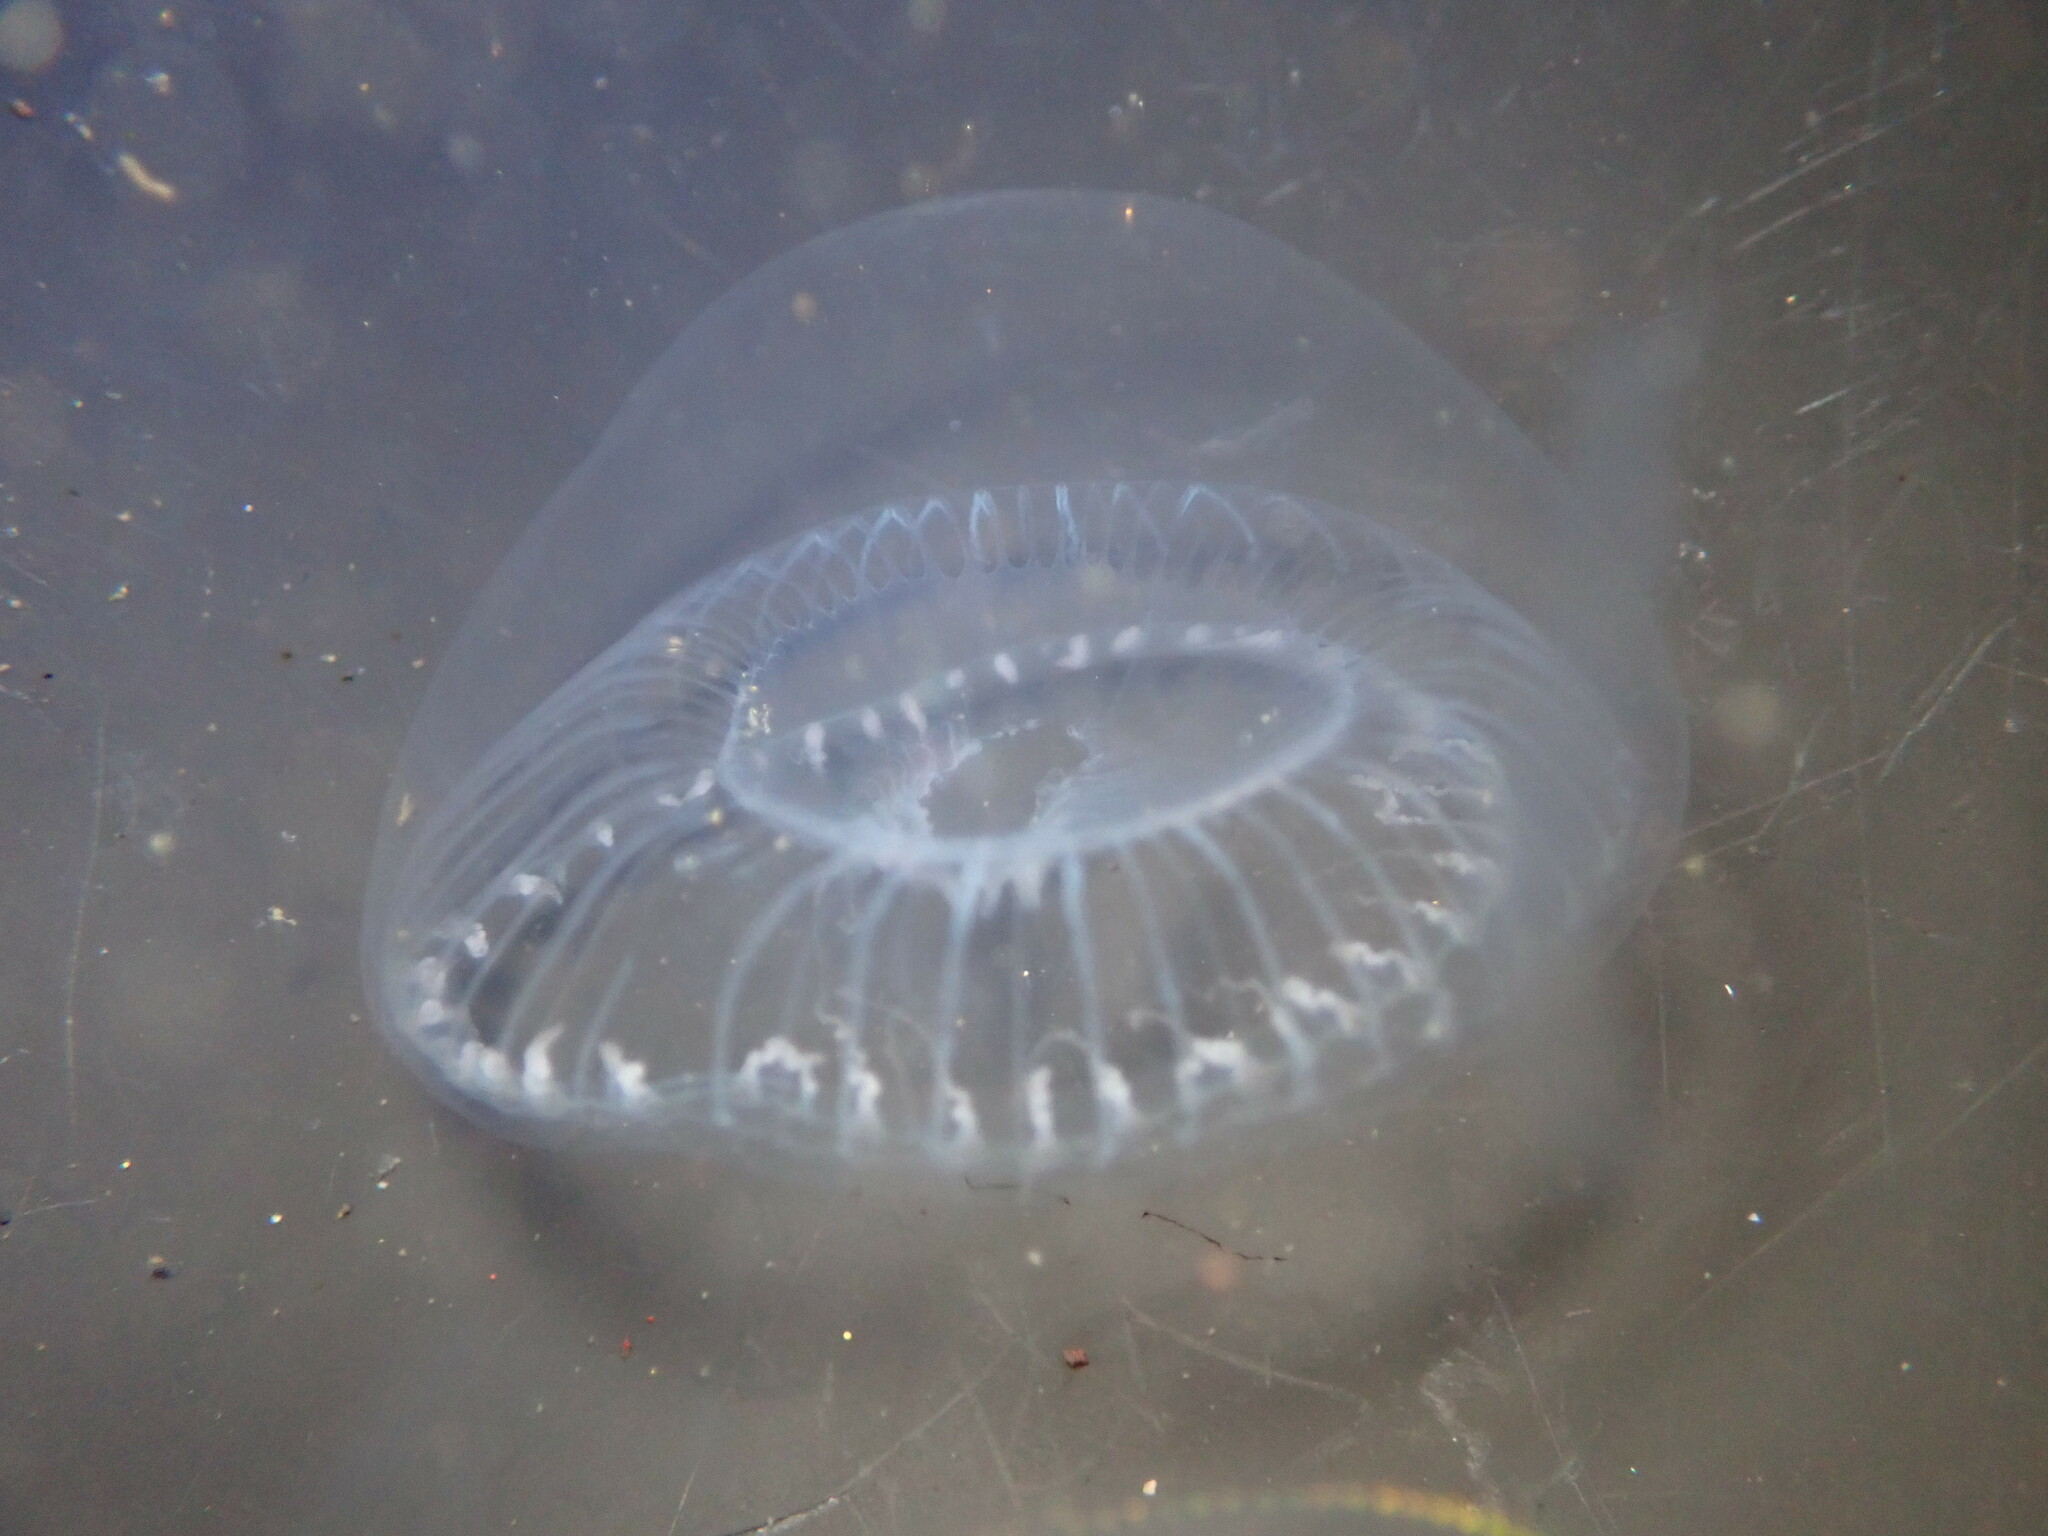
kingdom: Animalia
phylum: Cnidaria
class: Hydrozoa
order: Leptothecata
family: Aequoreidae
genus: Aequorea
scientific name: Aequorea victoria
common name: Water jellyfish
